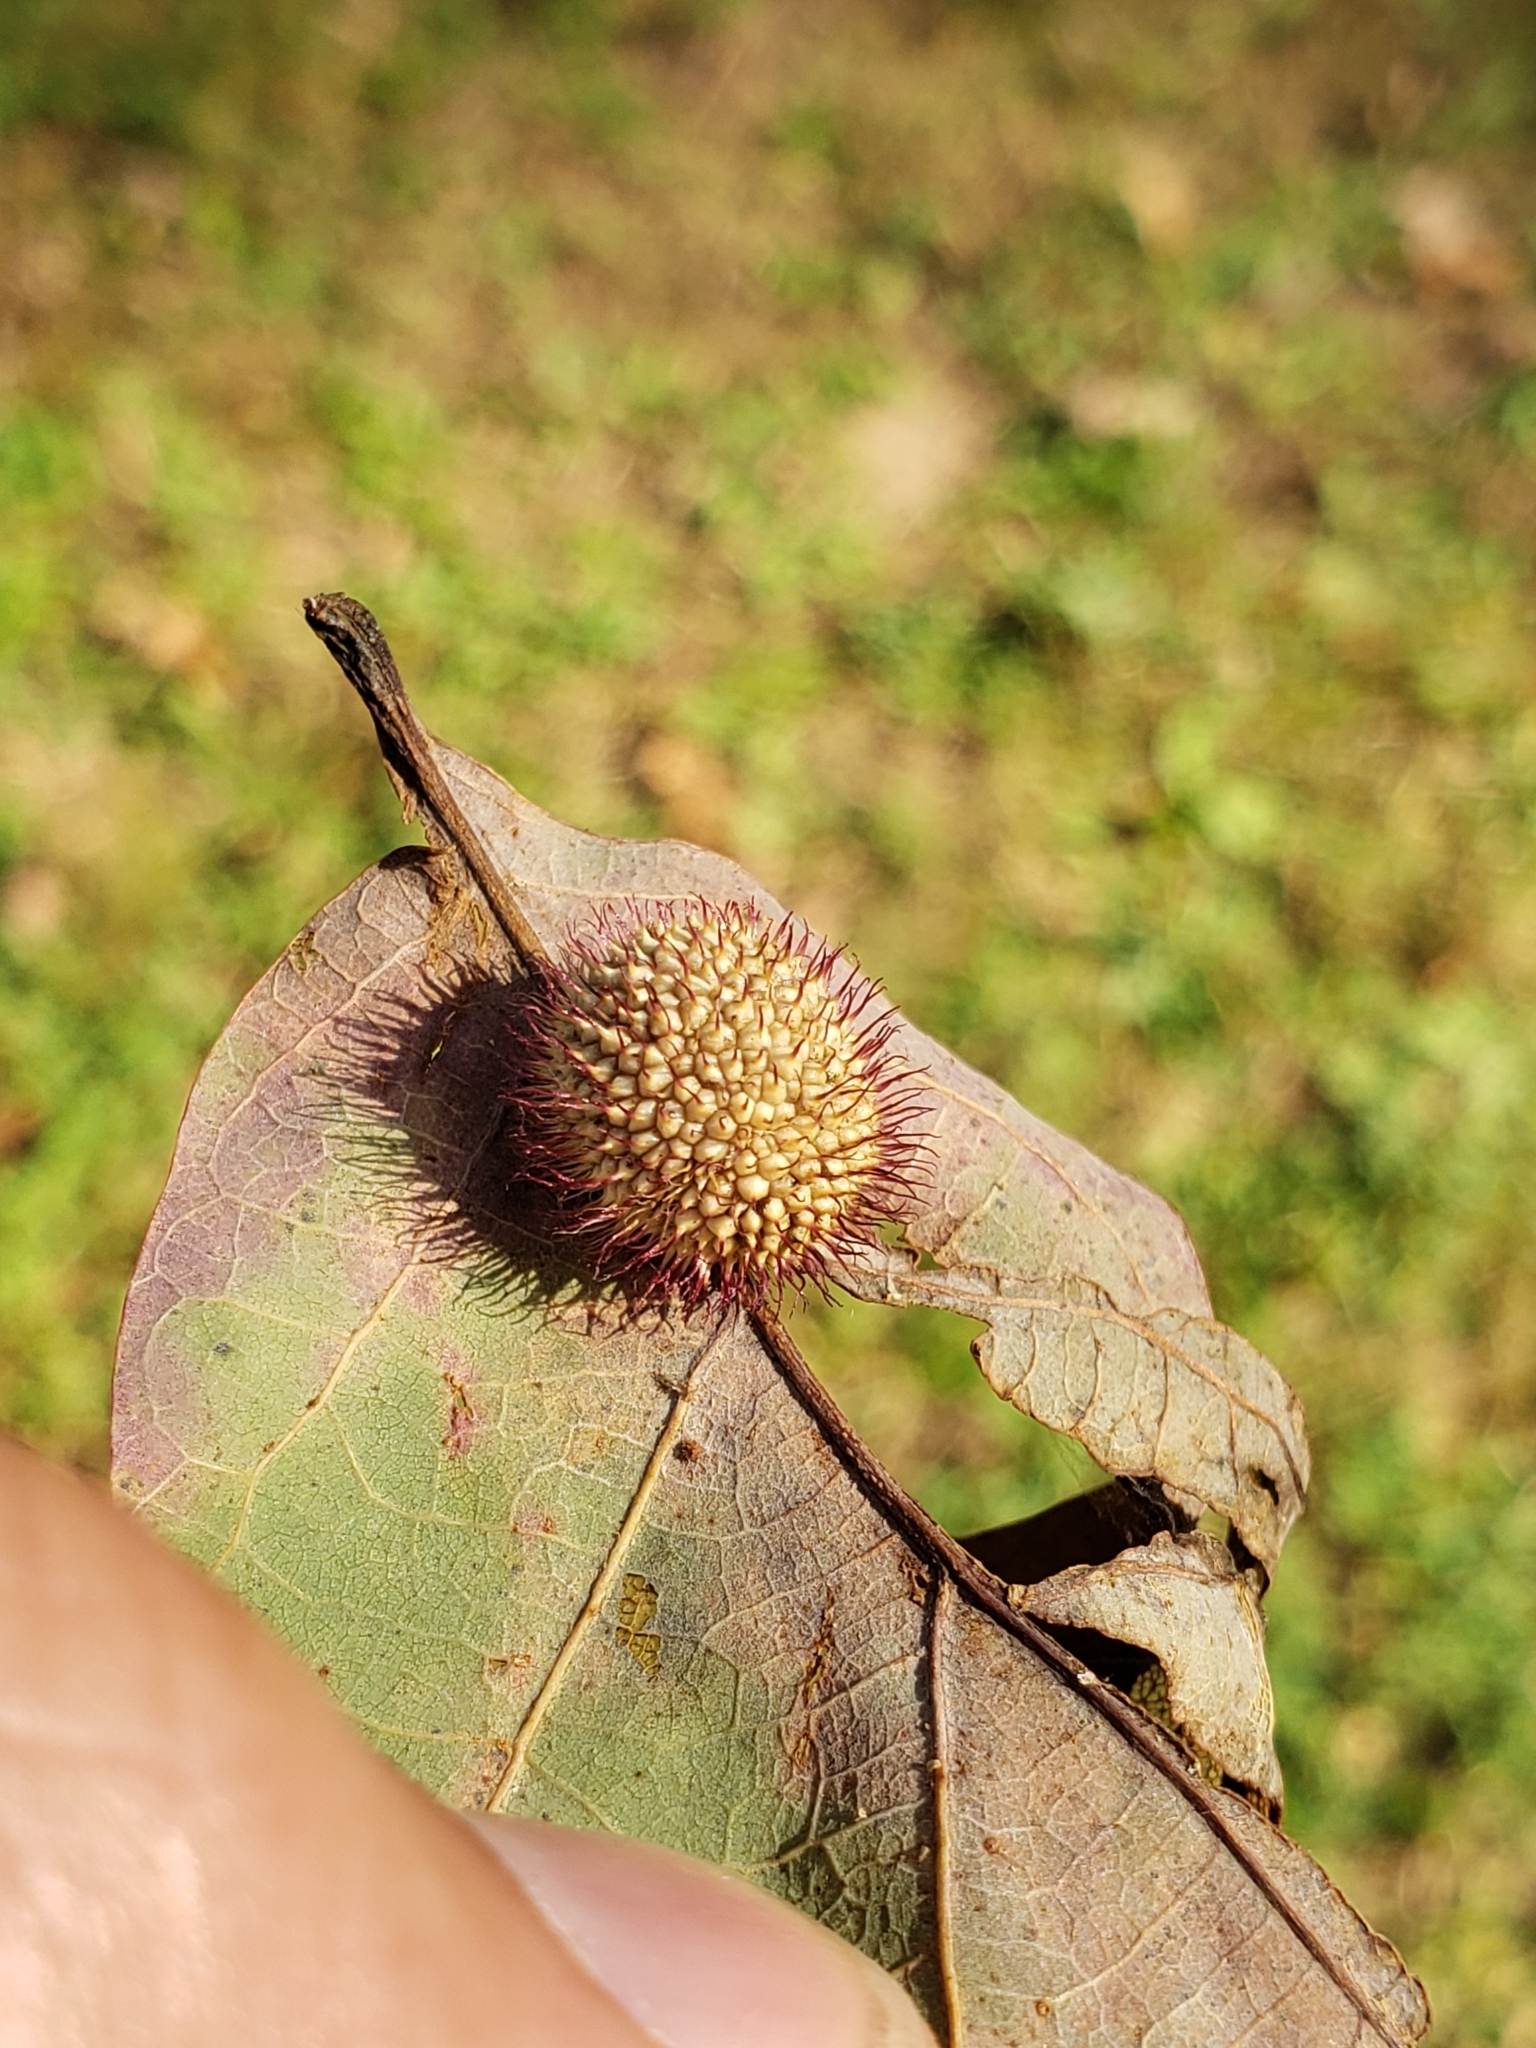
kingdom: Animalia
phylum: Arthropoda
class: Insecta
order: Hymenoptera
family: Cynipidae
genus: Acraspis
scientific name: Acraspis erinacei
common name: Hedgehog gall wasp
